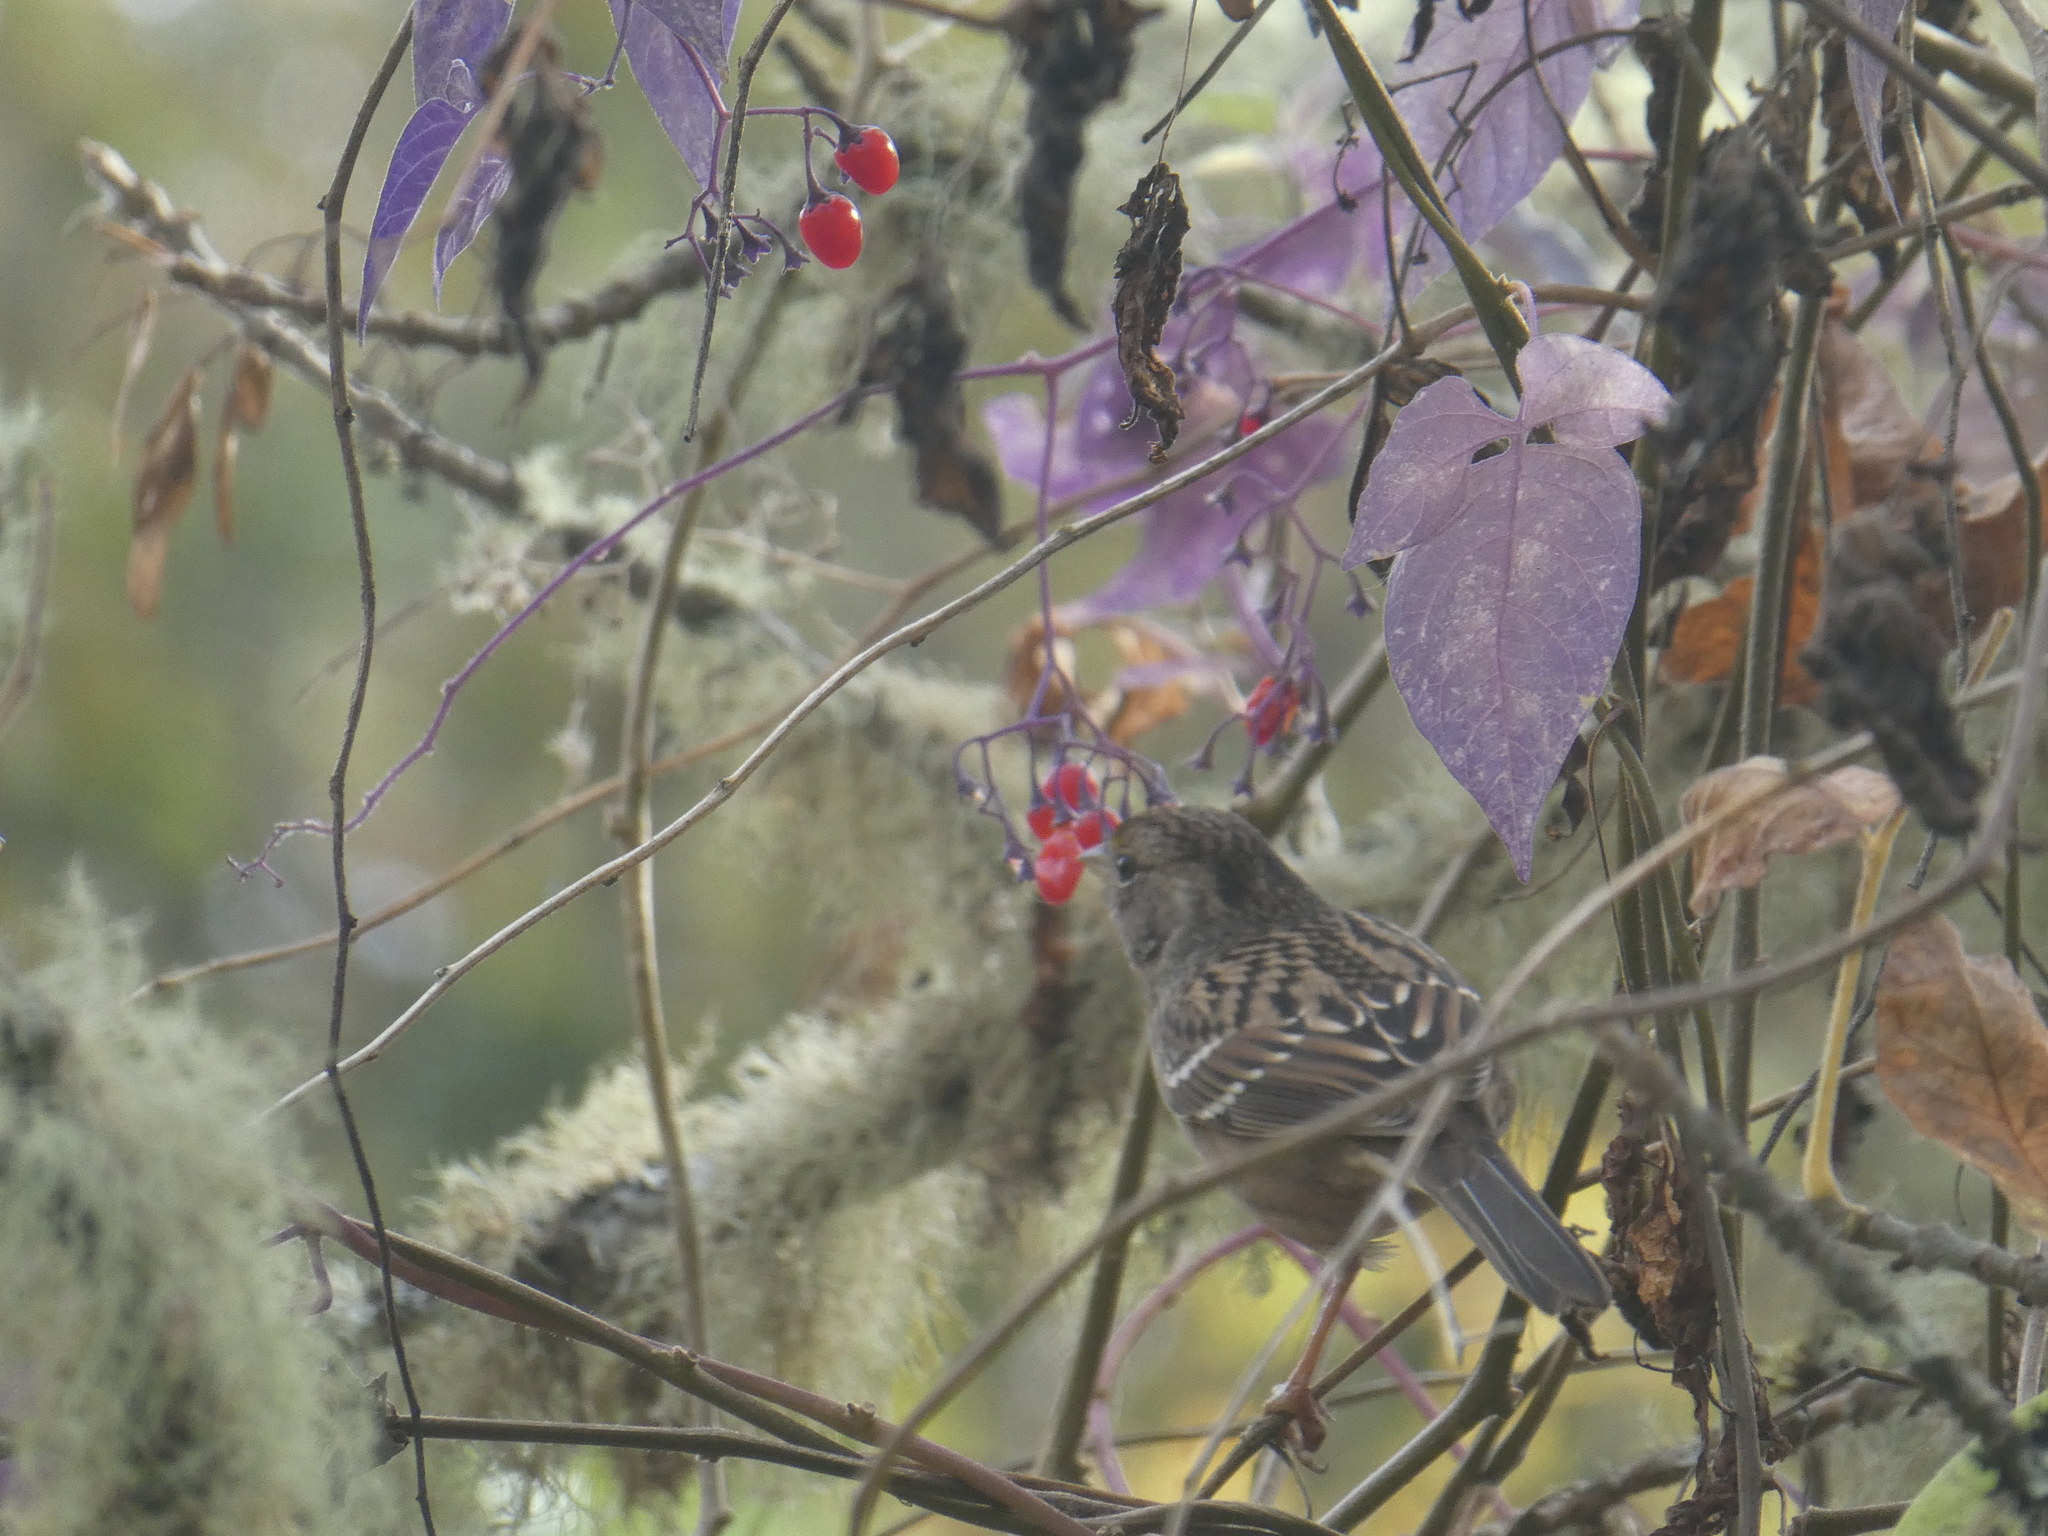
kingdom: Animalia
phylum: Chordata
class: Aves
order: Passeriformes
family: Passerellidae
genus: Zonotrichia
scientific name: Zonotrichia atricapilla
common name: Golden-crowned sparrow
